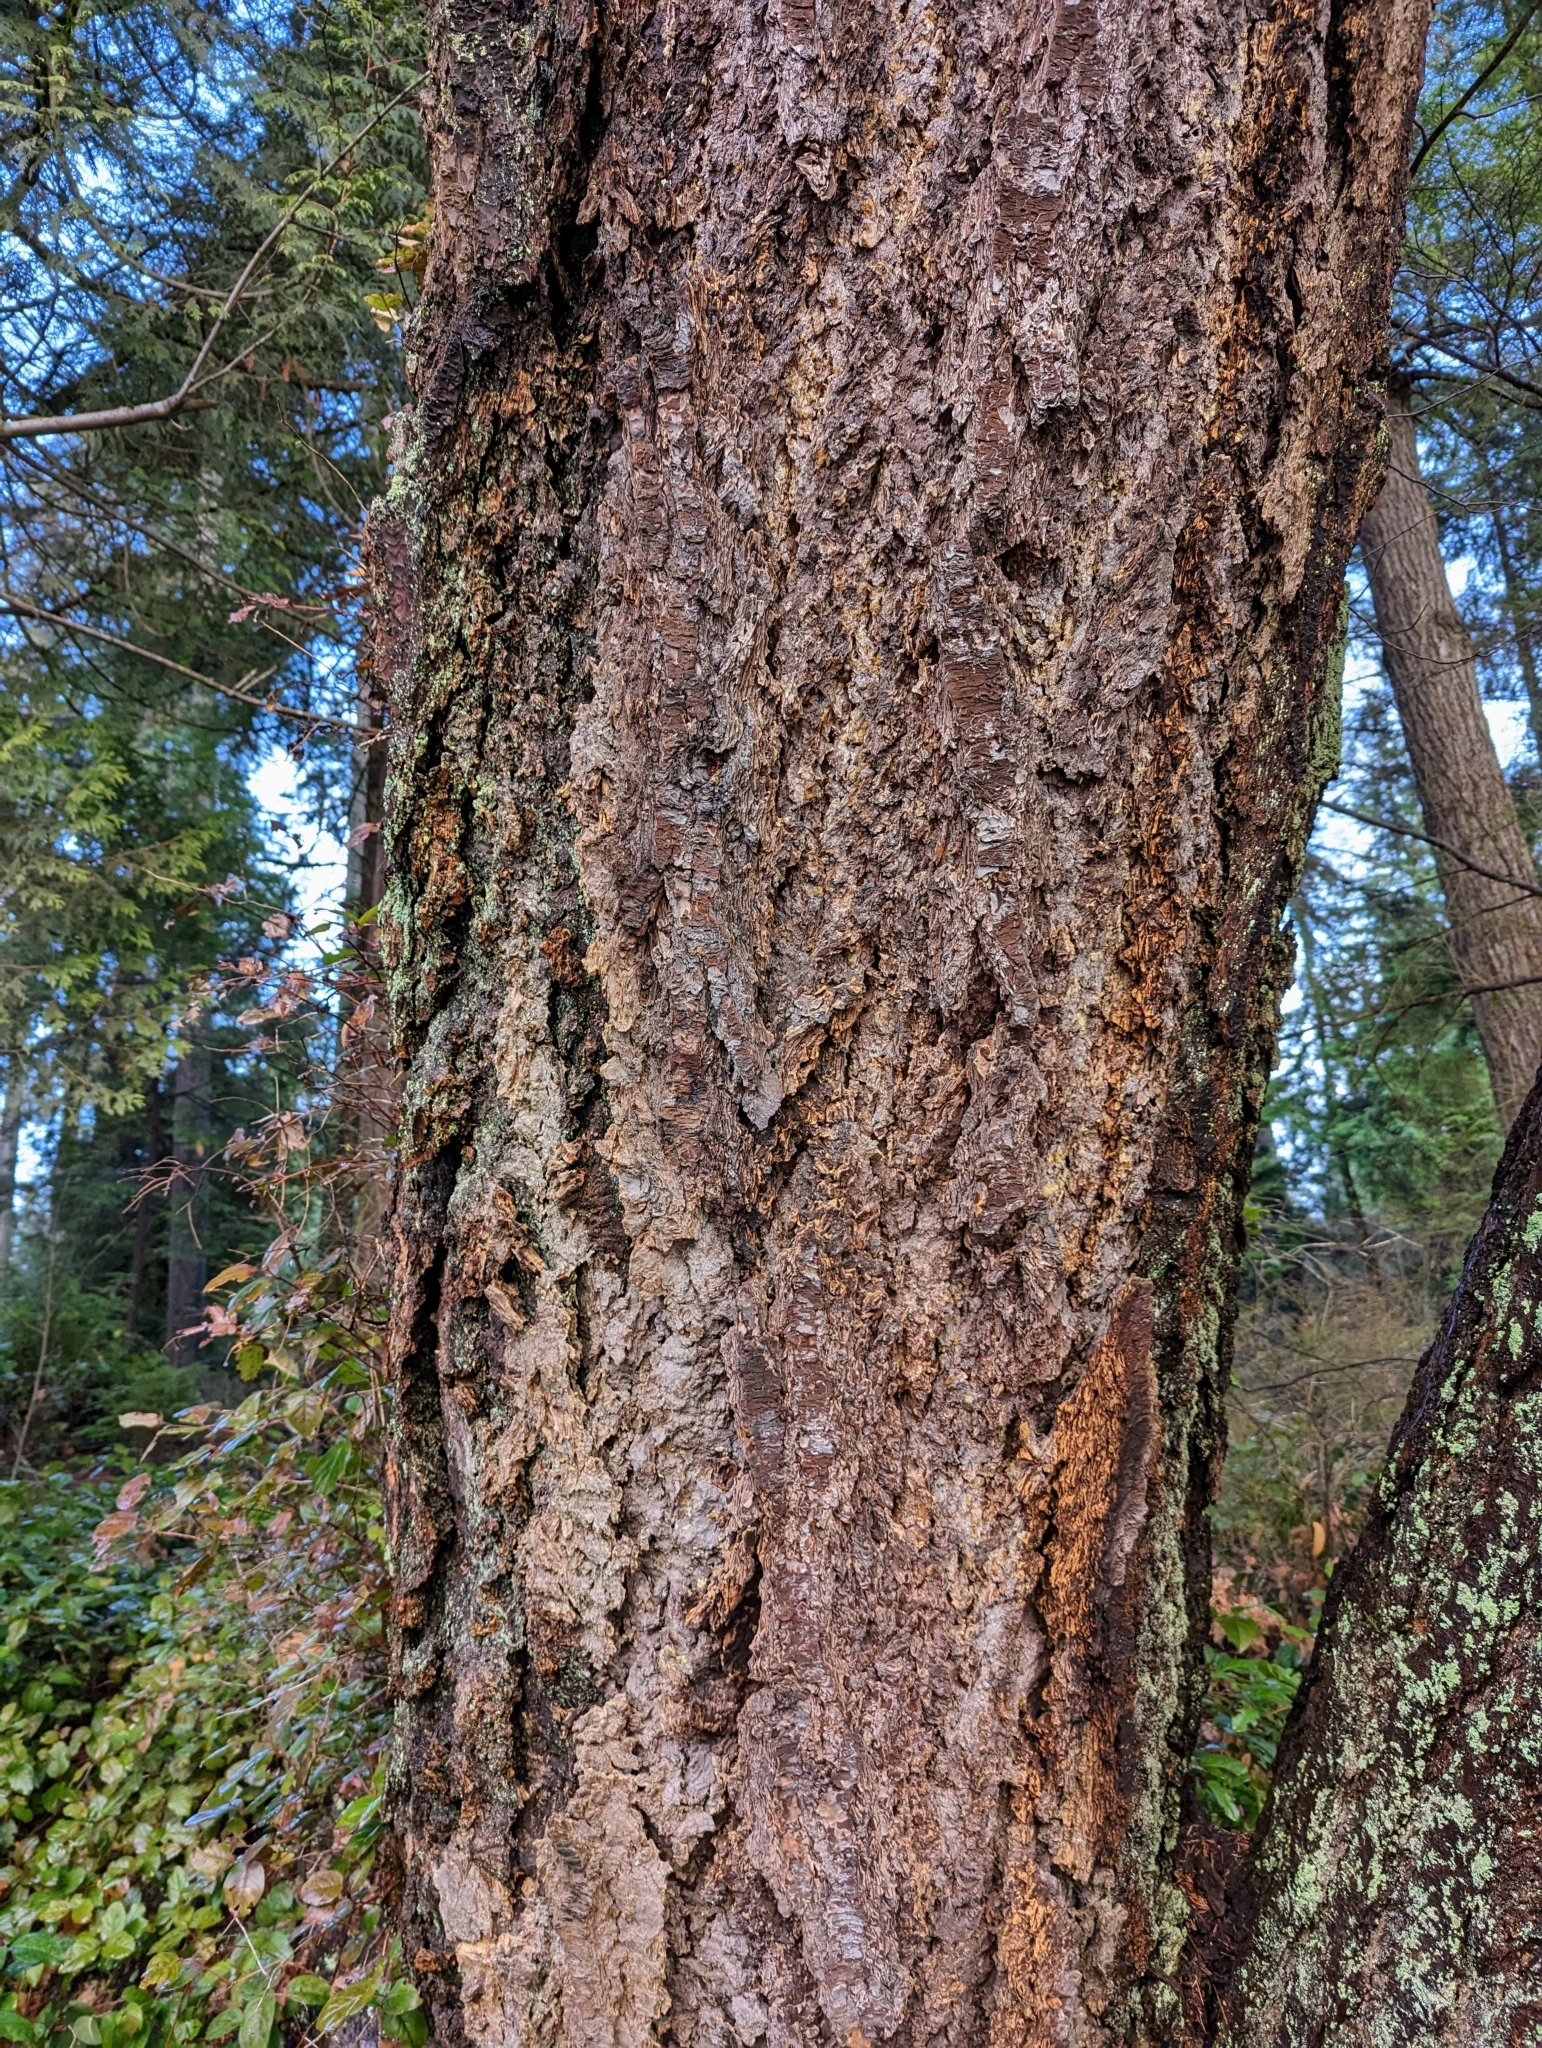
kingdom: Plantae
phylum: Tracheophyta
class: Pinopsida
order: Pinales
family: Pinaceae
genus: Pseudotsuga
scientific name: Pseudotsuga menziesii
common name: Douglas fir
